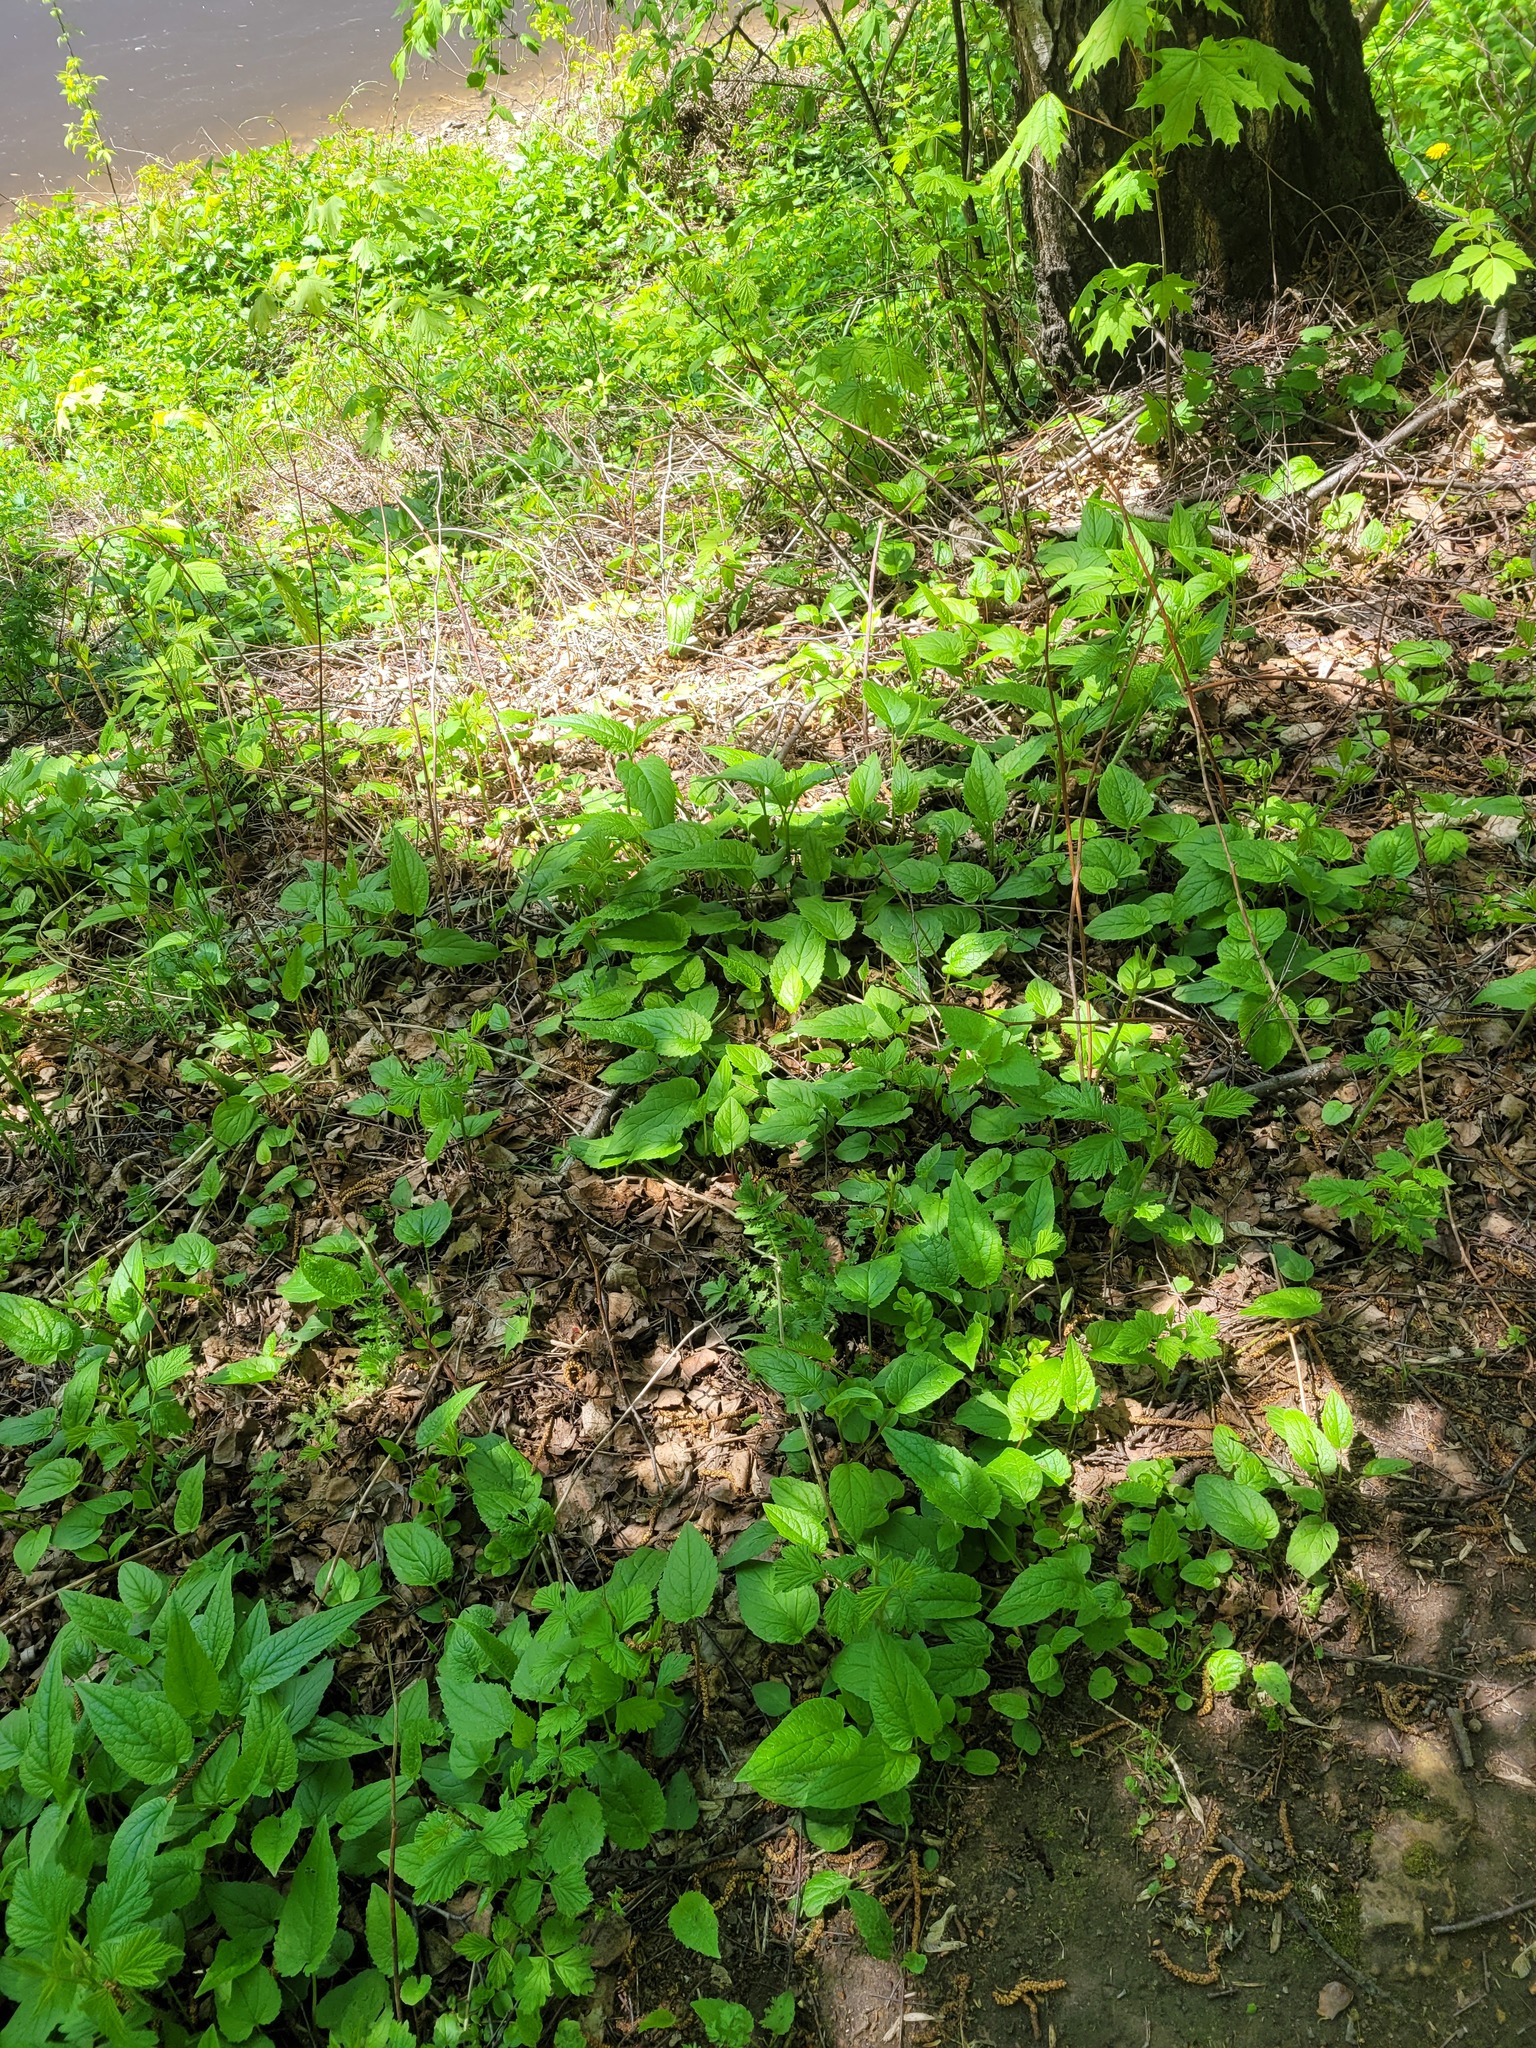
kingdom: Plantae
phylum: Tracheophyta
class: Magnoliopsida
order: Asterales
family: Campanulaceae
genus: Campanula
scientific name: Campanula rapunculoides
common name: Creeping bellflower
